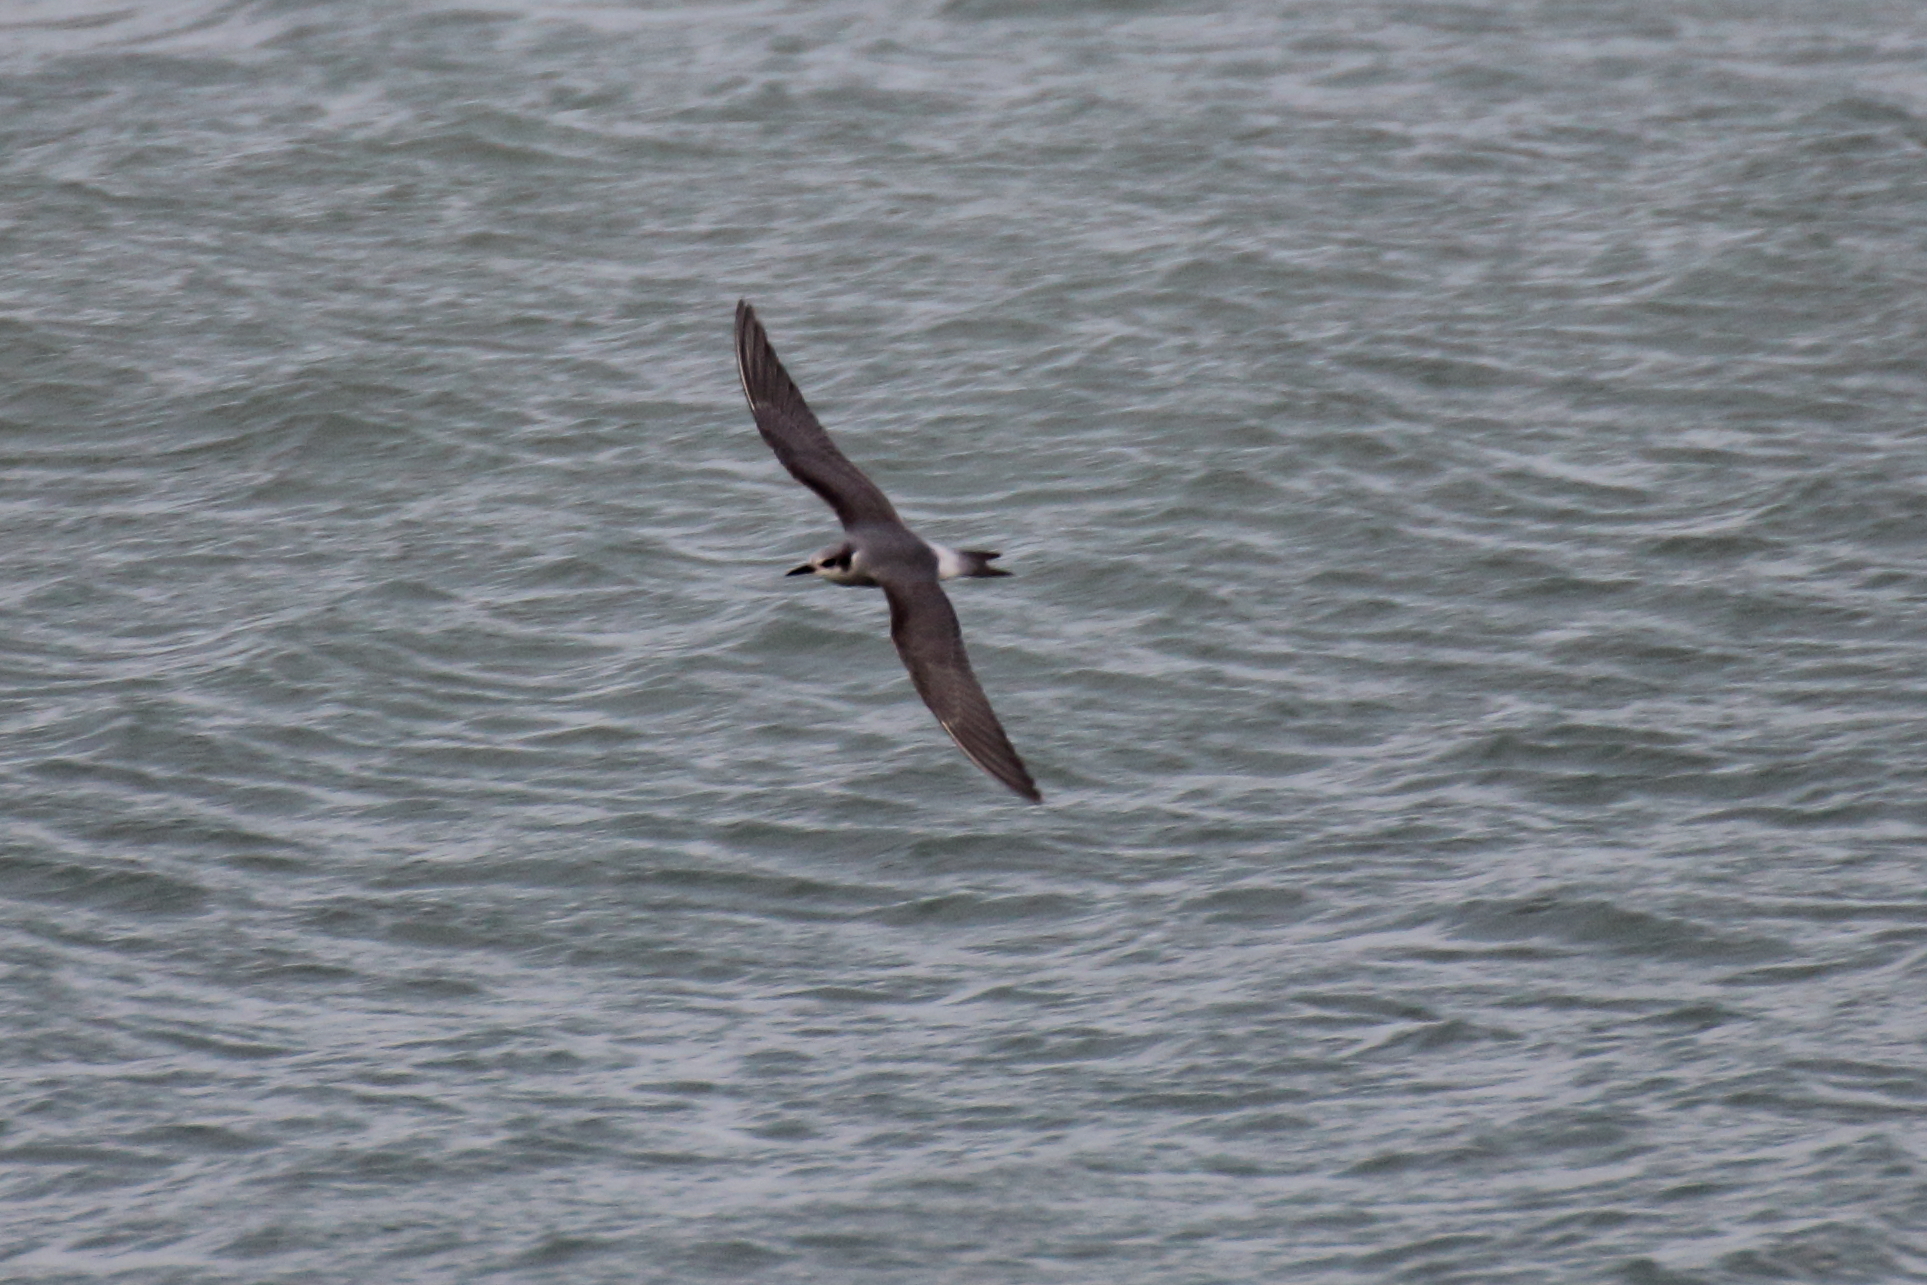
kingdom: Animalia
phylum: Chordata
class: Aves
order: Charadriiformes
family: Laridae
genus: Chlidonias
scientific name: Chlidonias albostriatus
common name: Black-fronted tern
